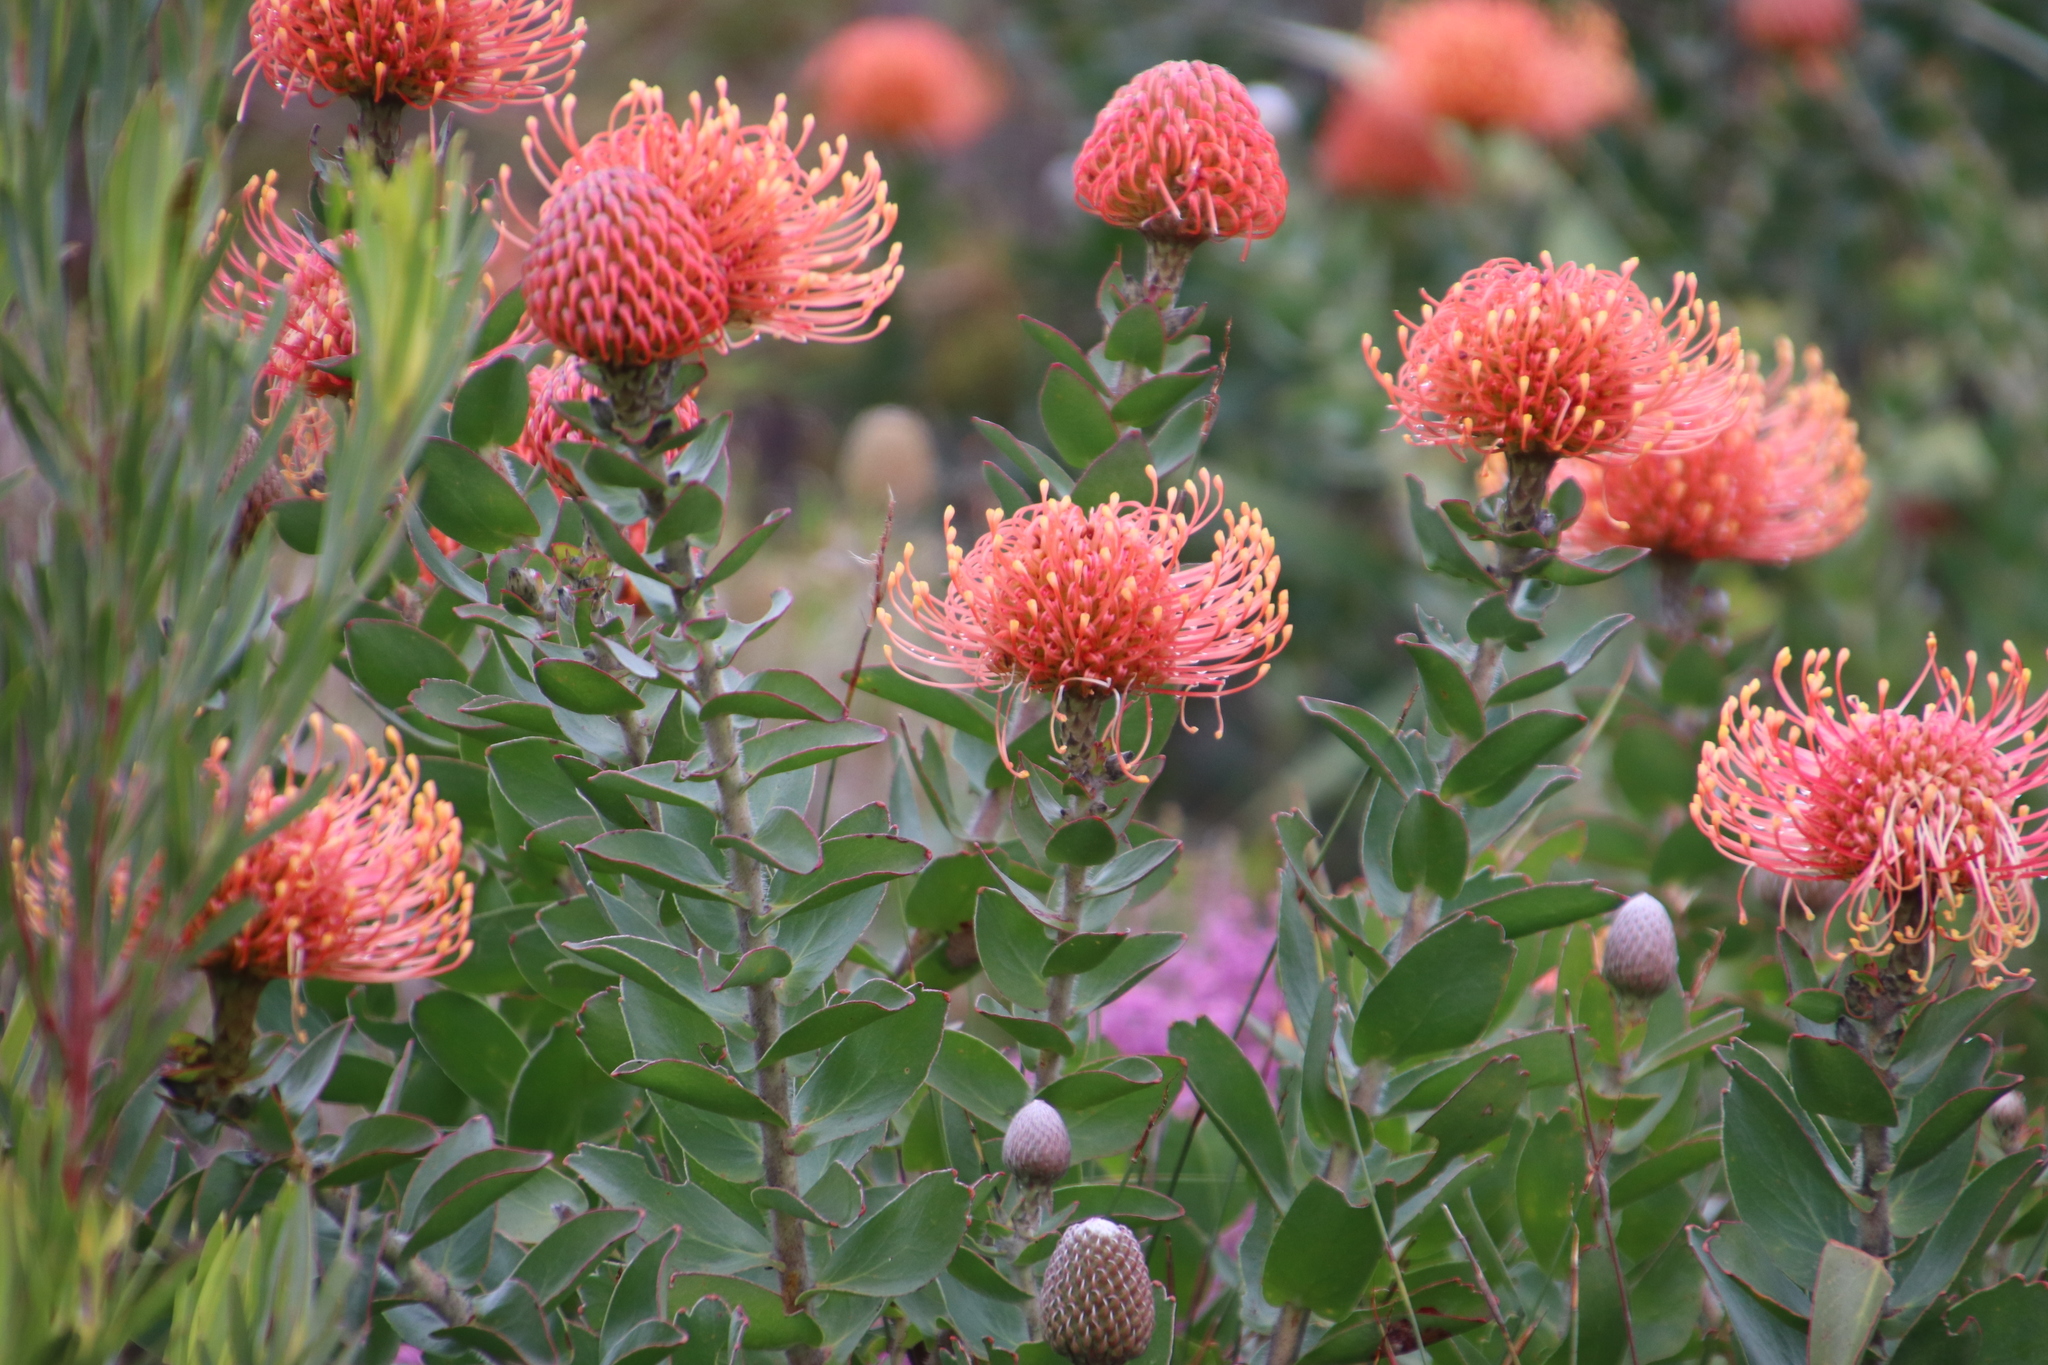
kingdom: Plantae
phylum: Tracheophyta
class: Magnoliopsida
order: Proteales
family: Proteaceae
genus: Leucospermum
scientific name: Leucospermum cordifolium
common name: Red pincushion-protea
